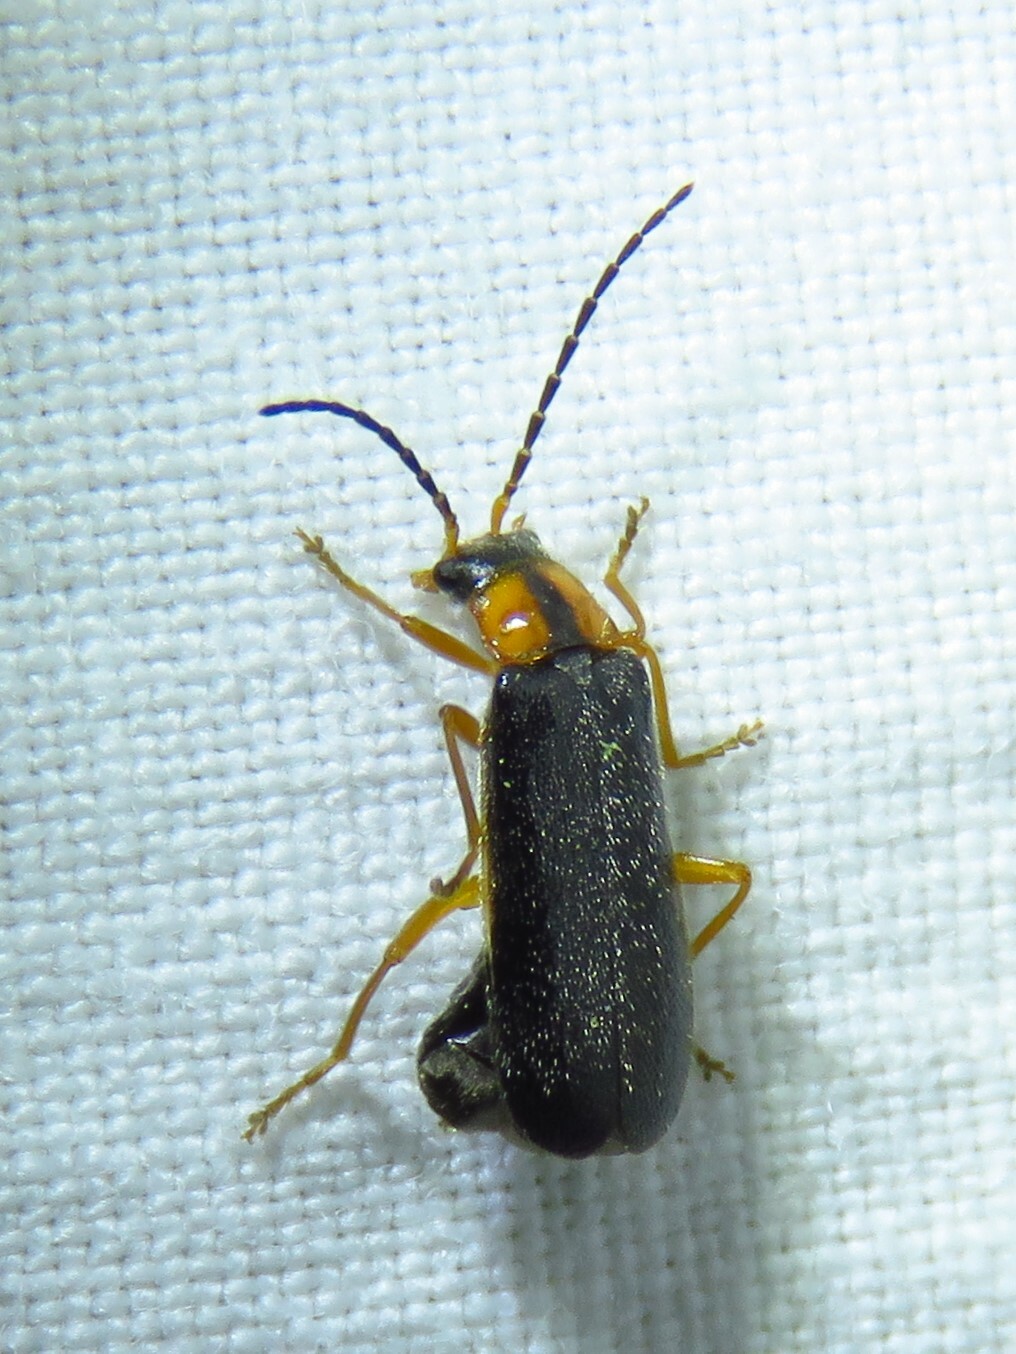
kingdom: Animalia
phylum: Arthropoda
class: Insecta
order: Coleoptera
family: Cantharidae
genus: Rhagonycha
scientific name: Rhagonycha oriflava
